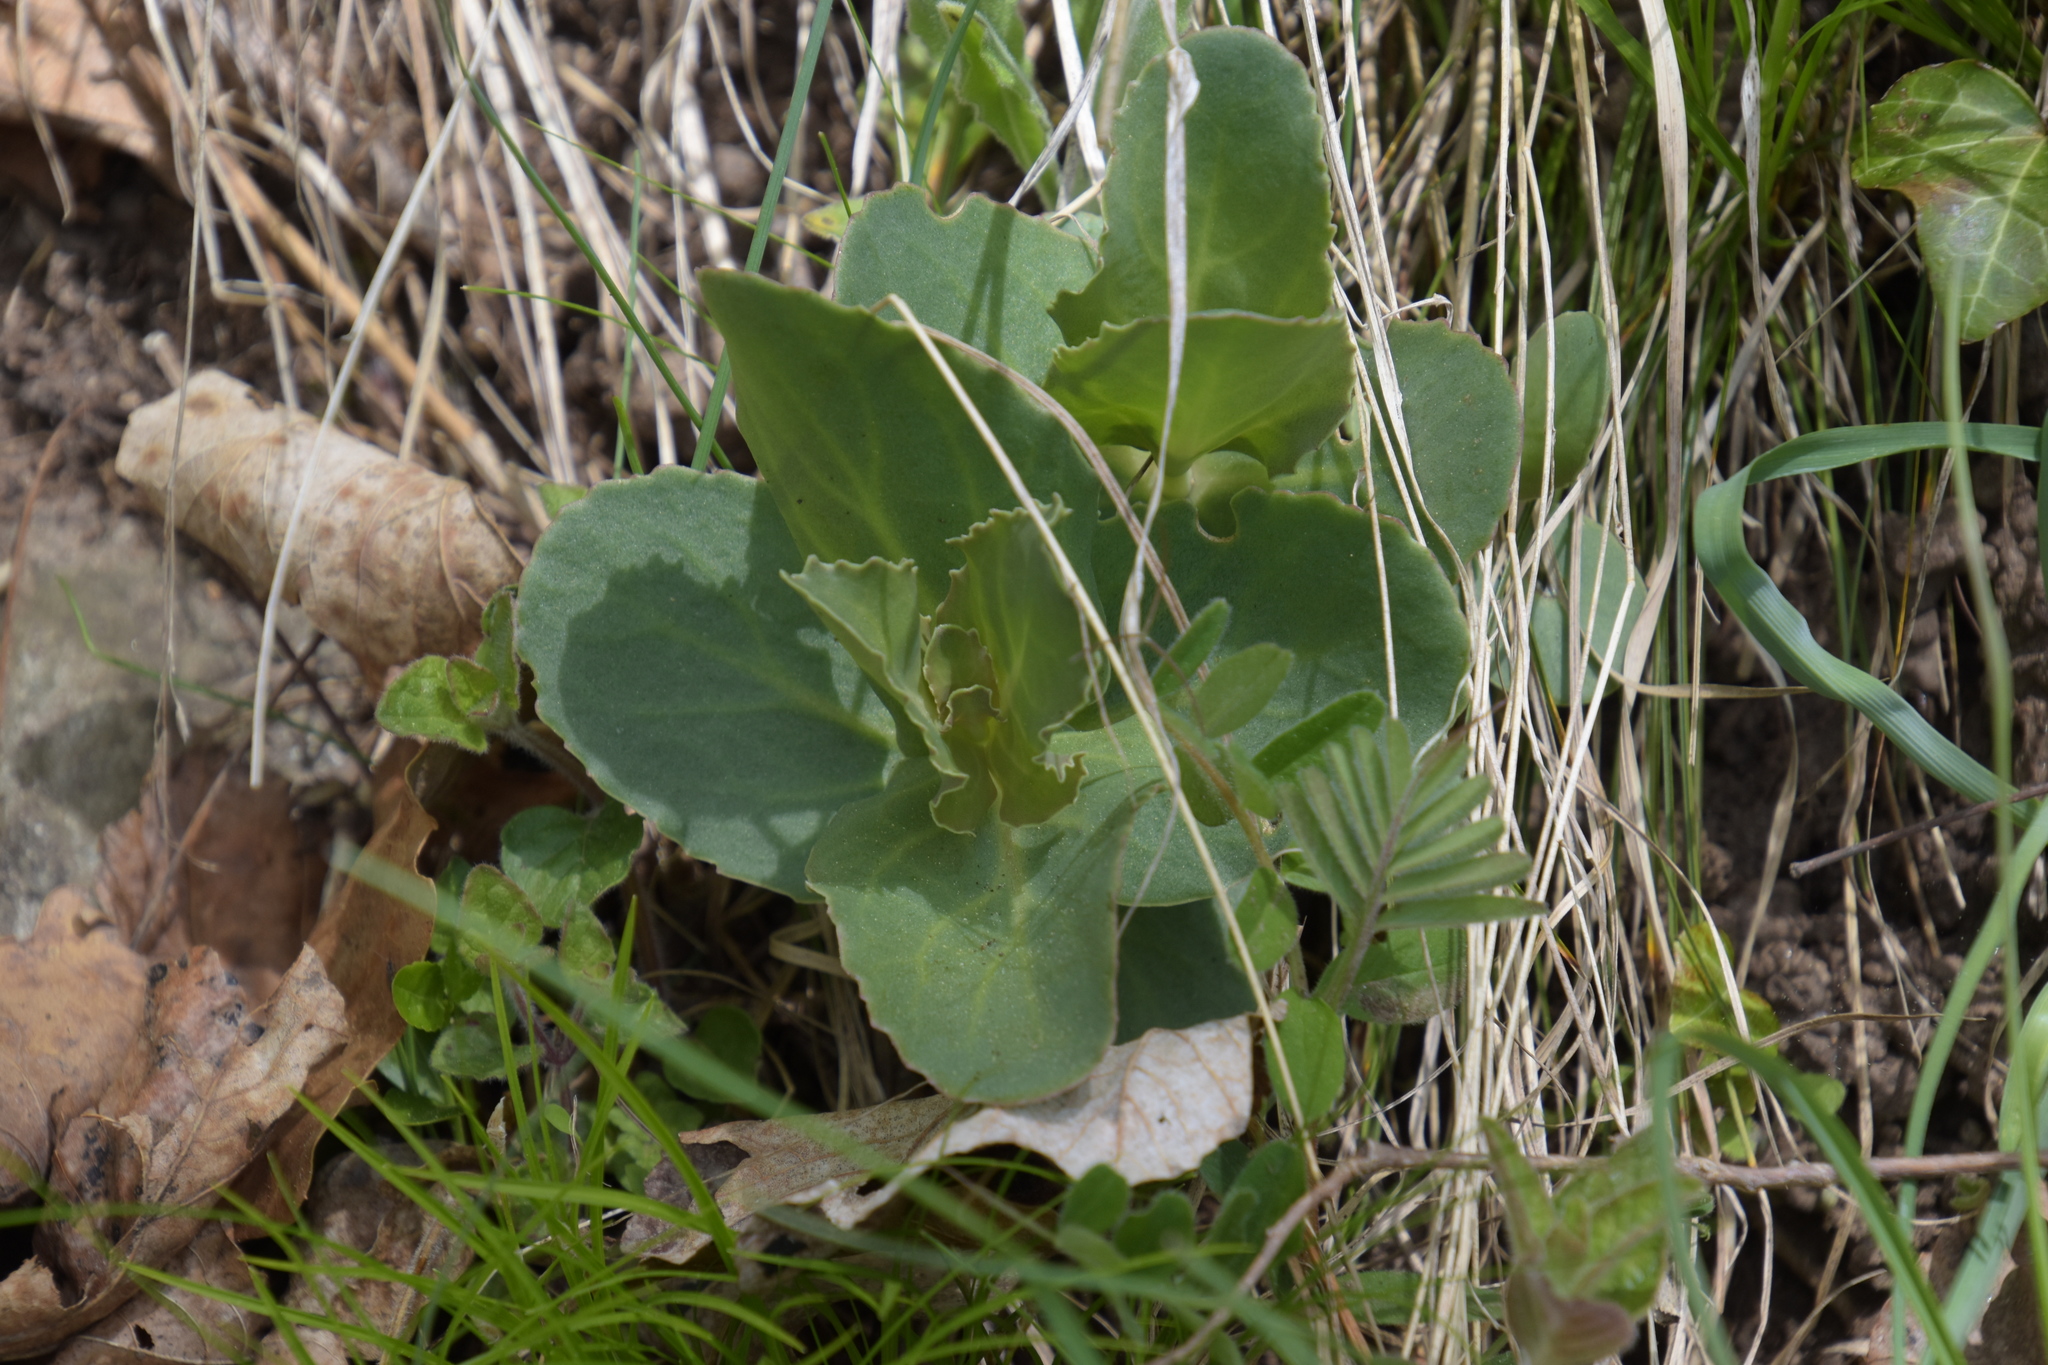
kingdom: Plantae
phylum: Tracheophyta
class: Magnoliopsida
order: Saxifragales
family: Crassulaceae
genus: Hylotelephium
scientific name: Hylotelephium maximum
